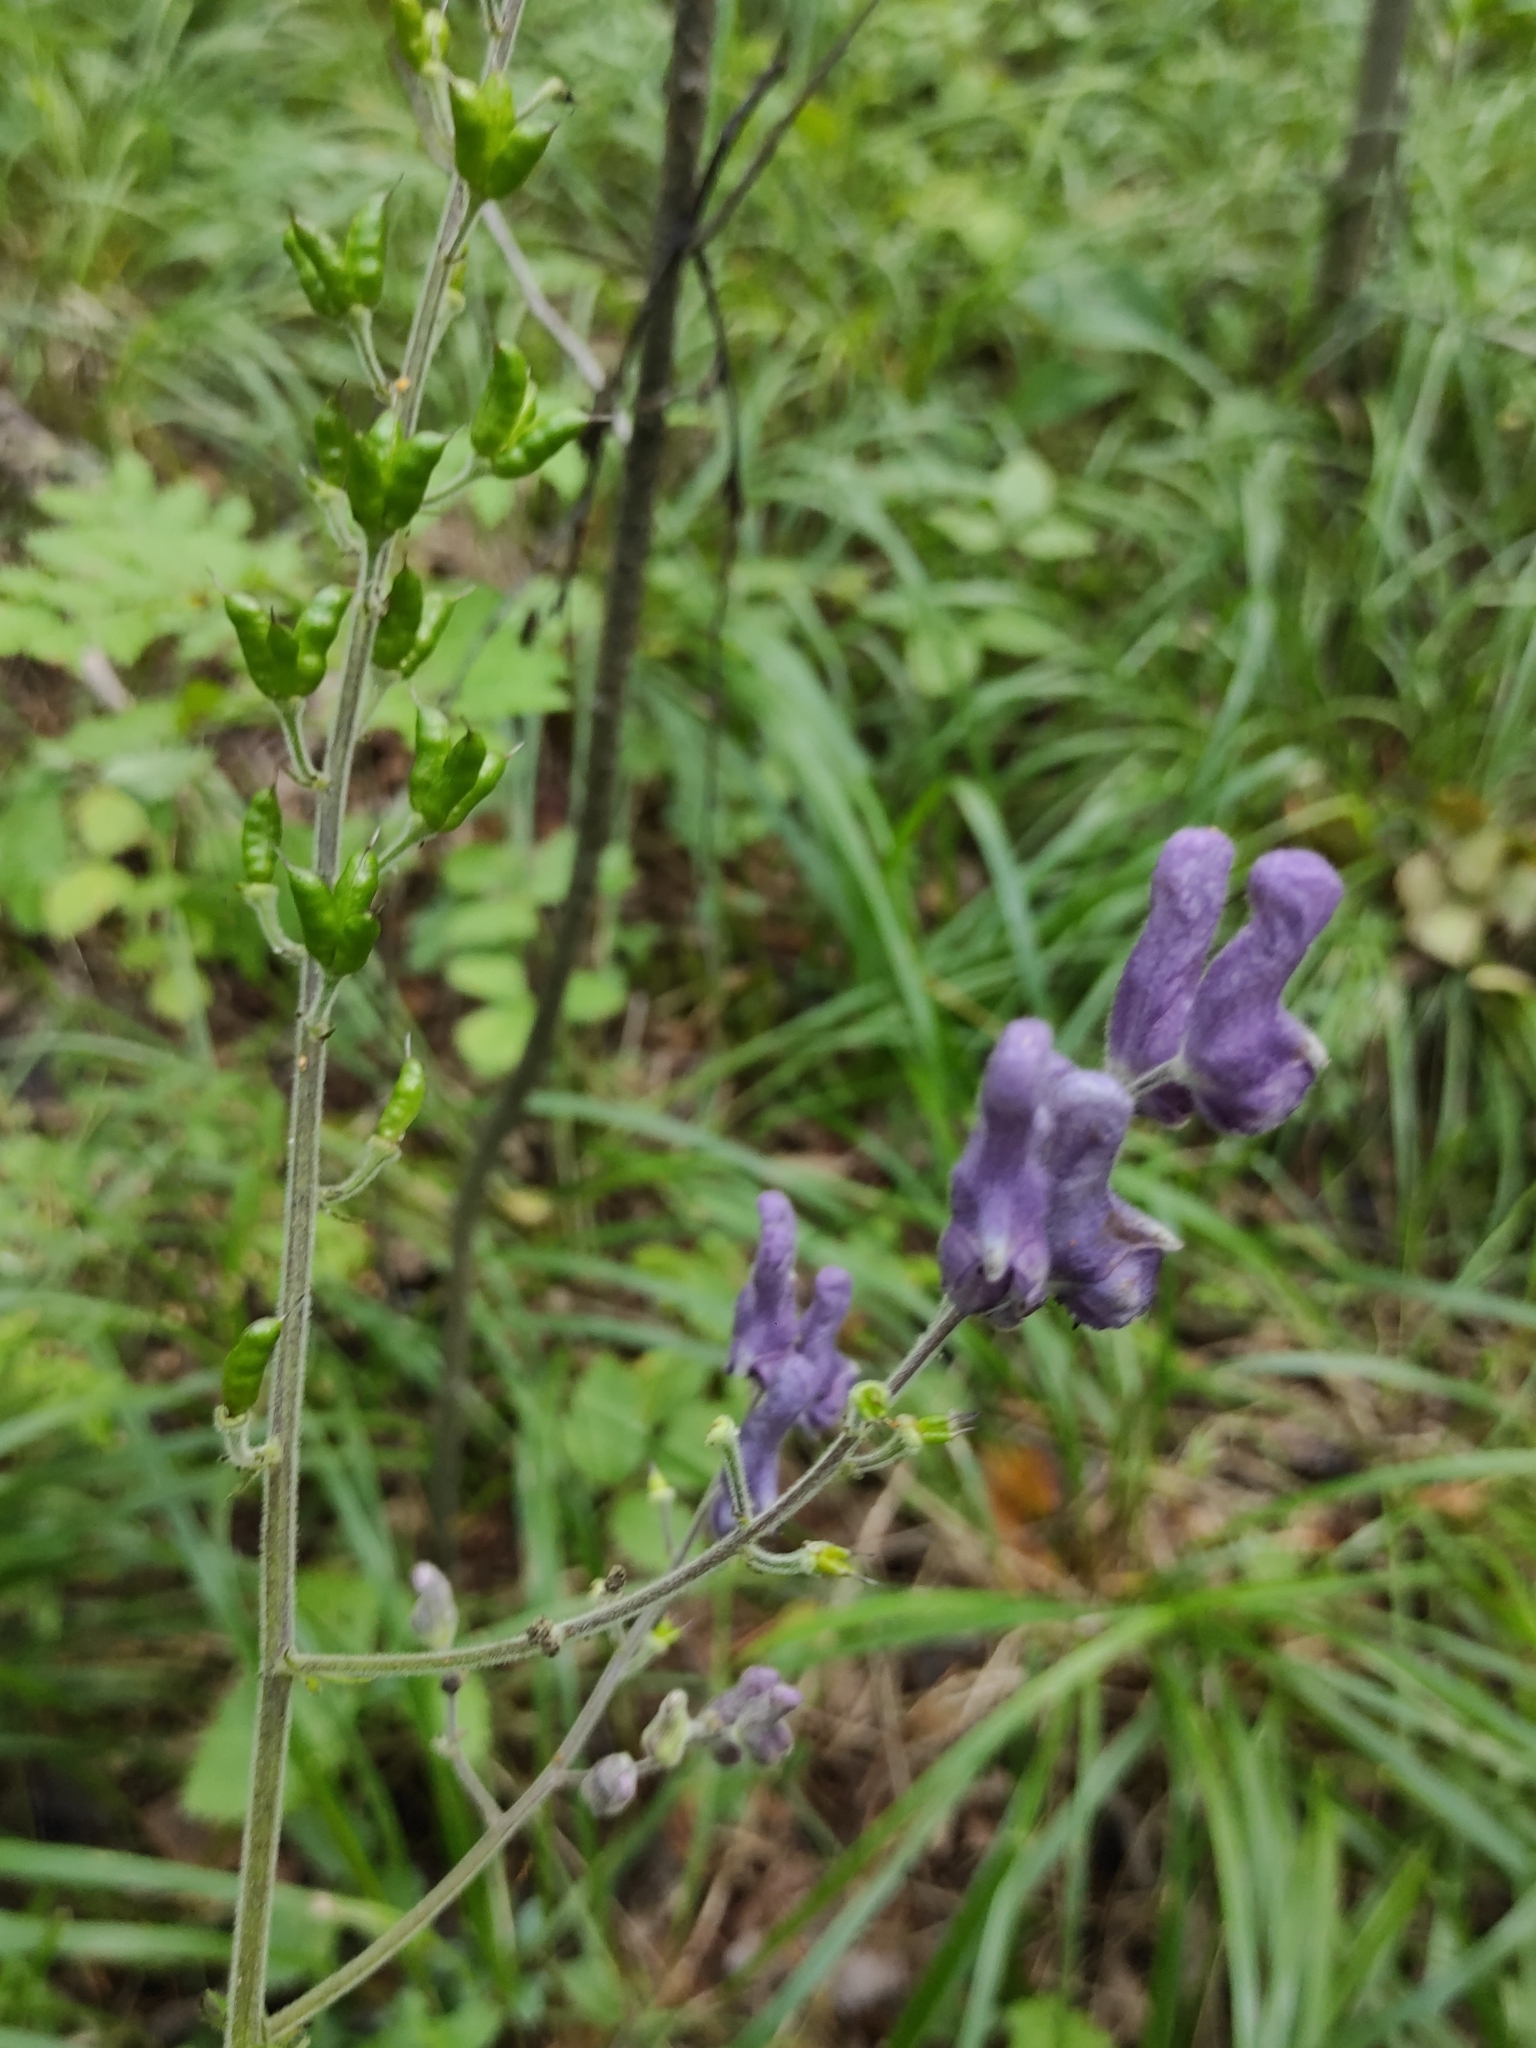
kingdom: Plantae
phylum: Tracheophyta
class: Magnoliopsida
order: Ranunculales
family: Ranunculaceae
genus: Aconitum
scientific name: Aconitum septentrionale
